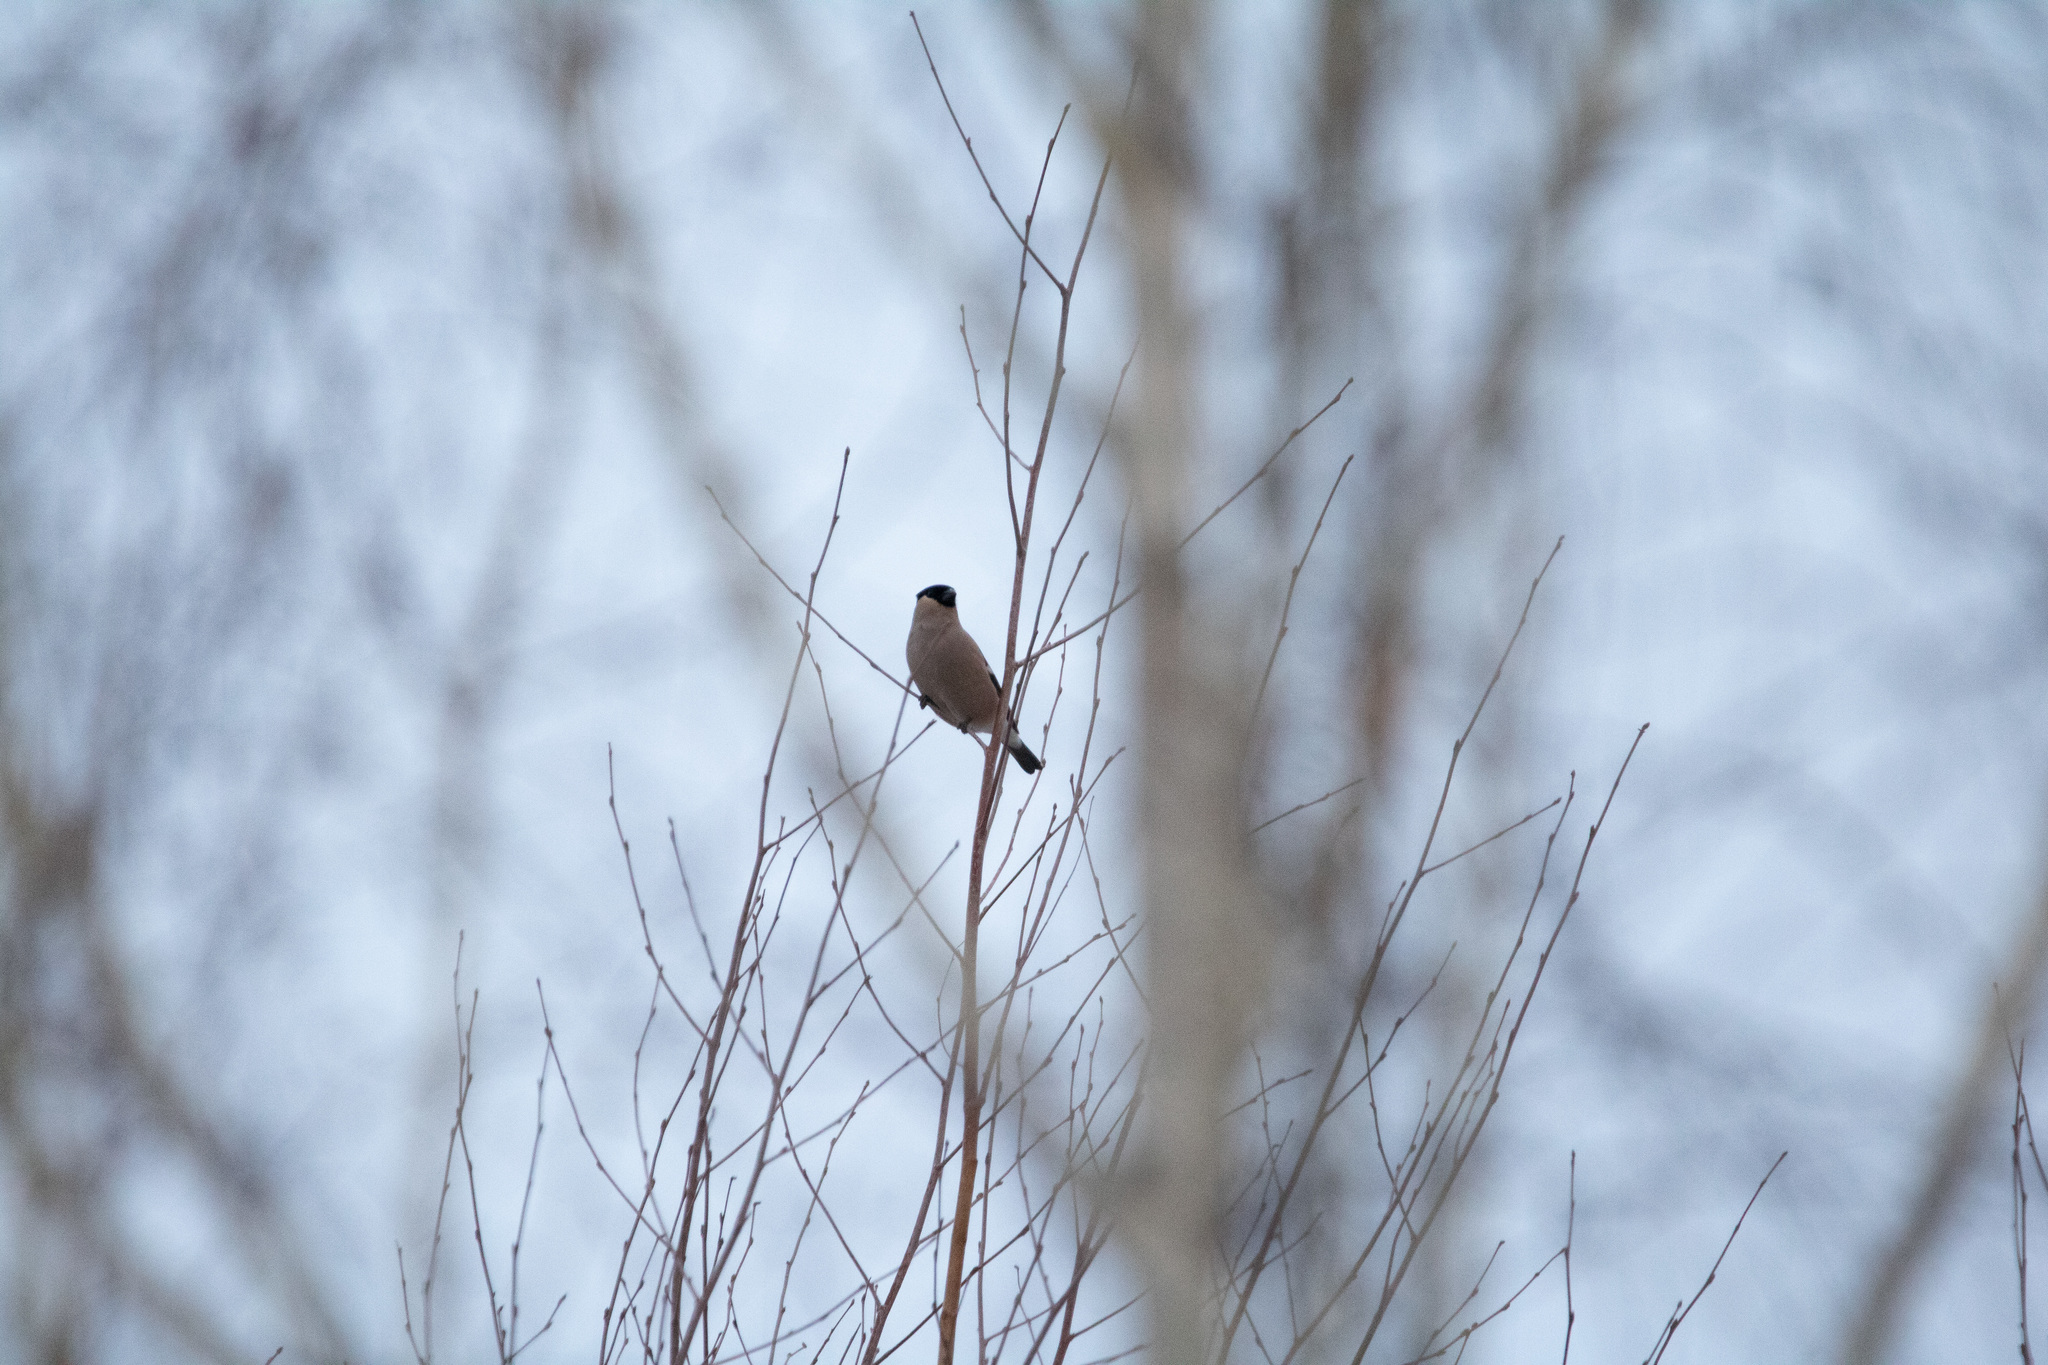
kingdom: Animalia
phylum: Chordata
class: Aves
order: Passeriformes
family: Fringillidae
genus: Pyrrhula
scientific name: Pyrrhula pyrrhula
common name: Eurasian bullfinch
